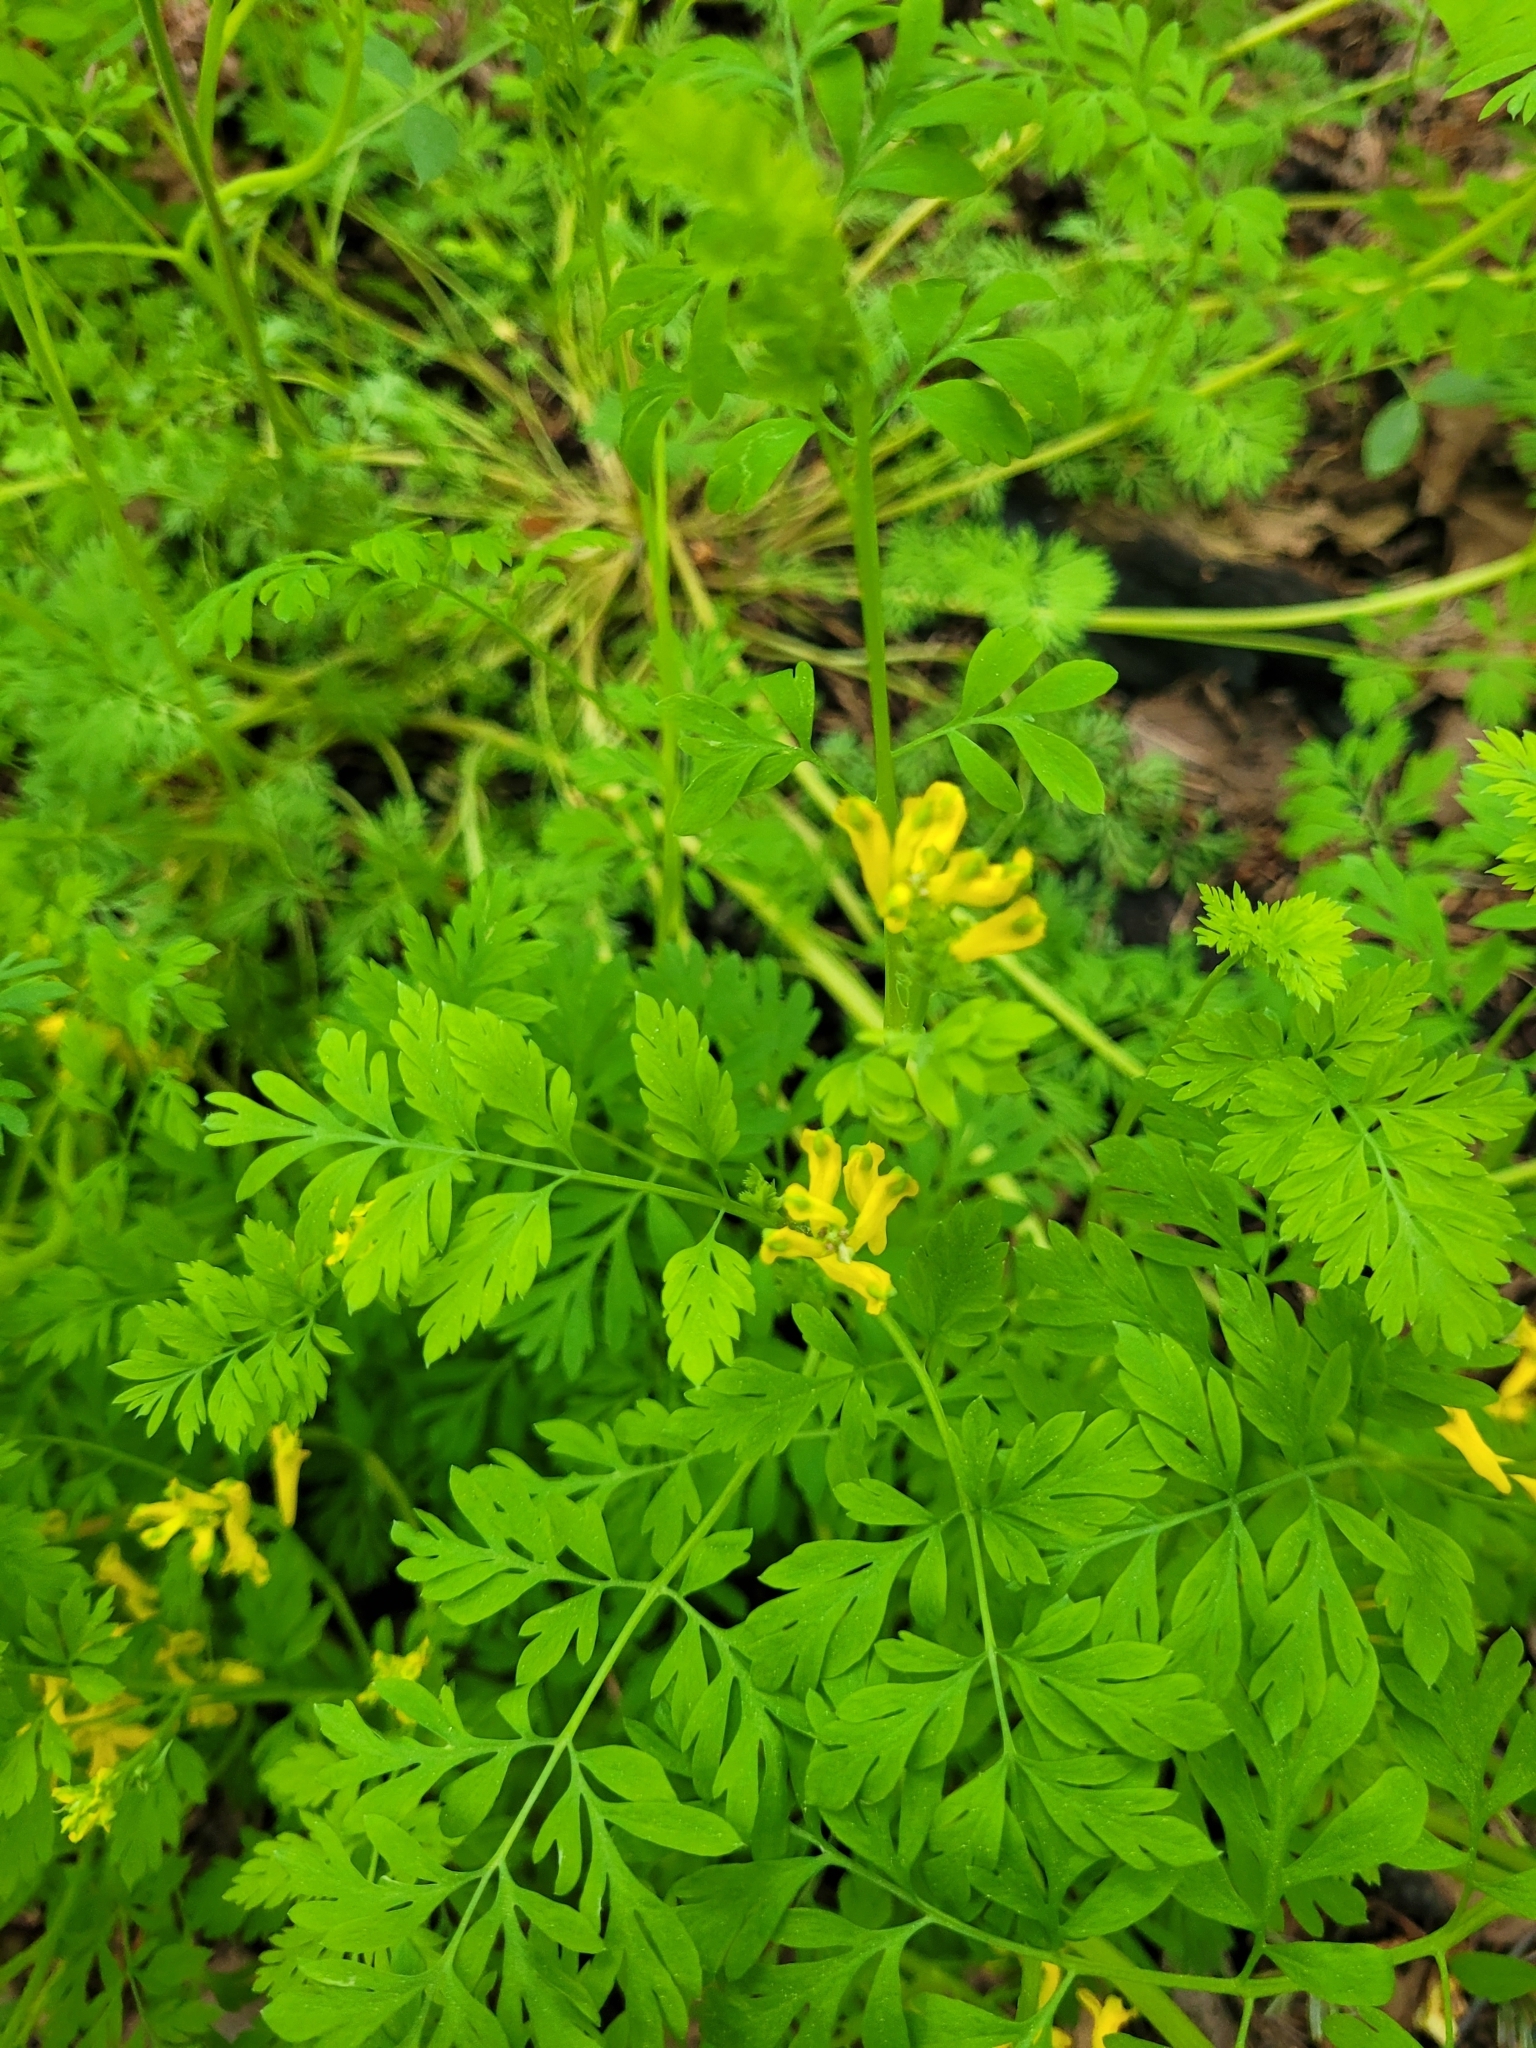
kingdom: Plantae
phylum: Tracheophyta
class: Magnoliopsida
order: Ranunculales
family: Papaveraceae
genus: Corydalis
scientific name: Corydalis aurea
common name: Golden corydalis
